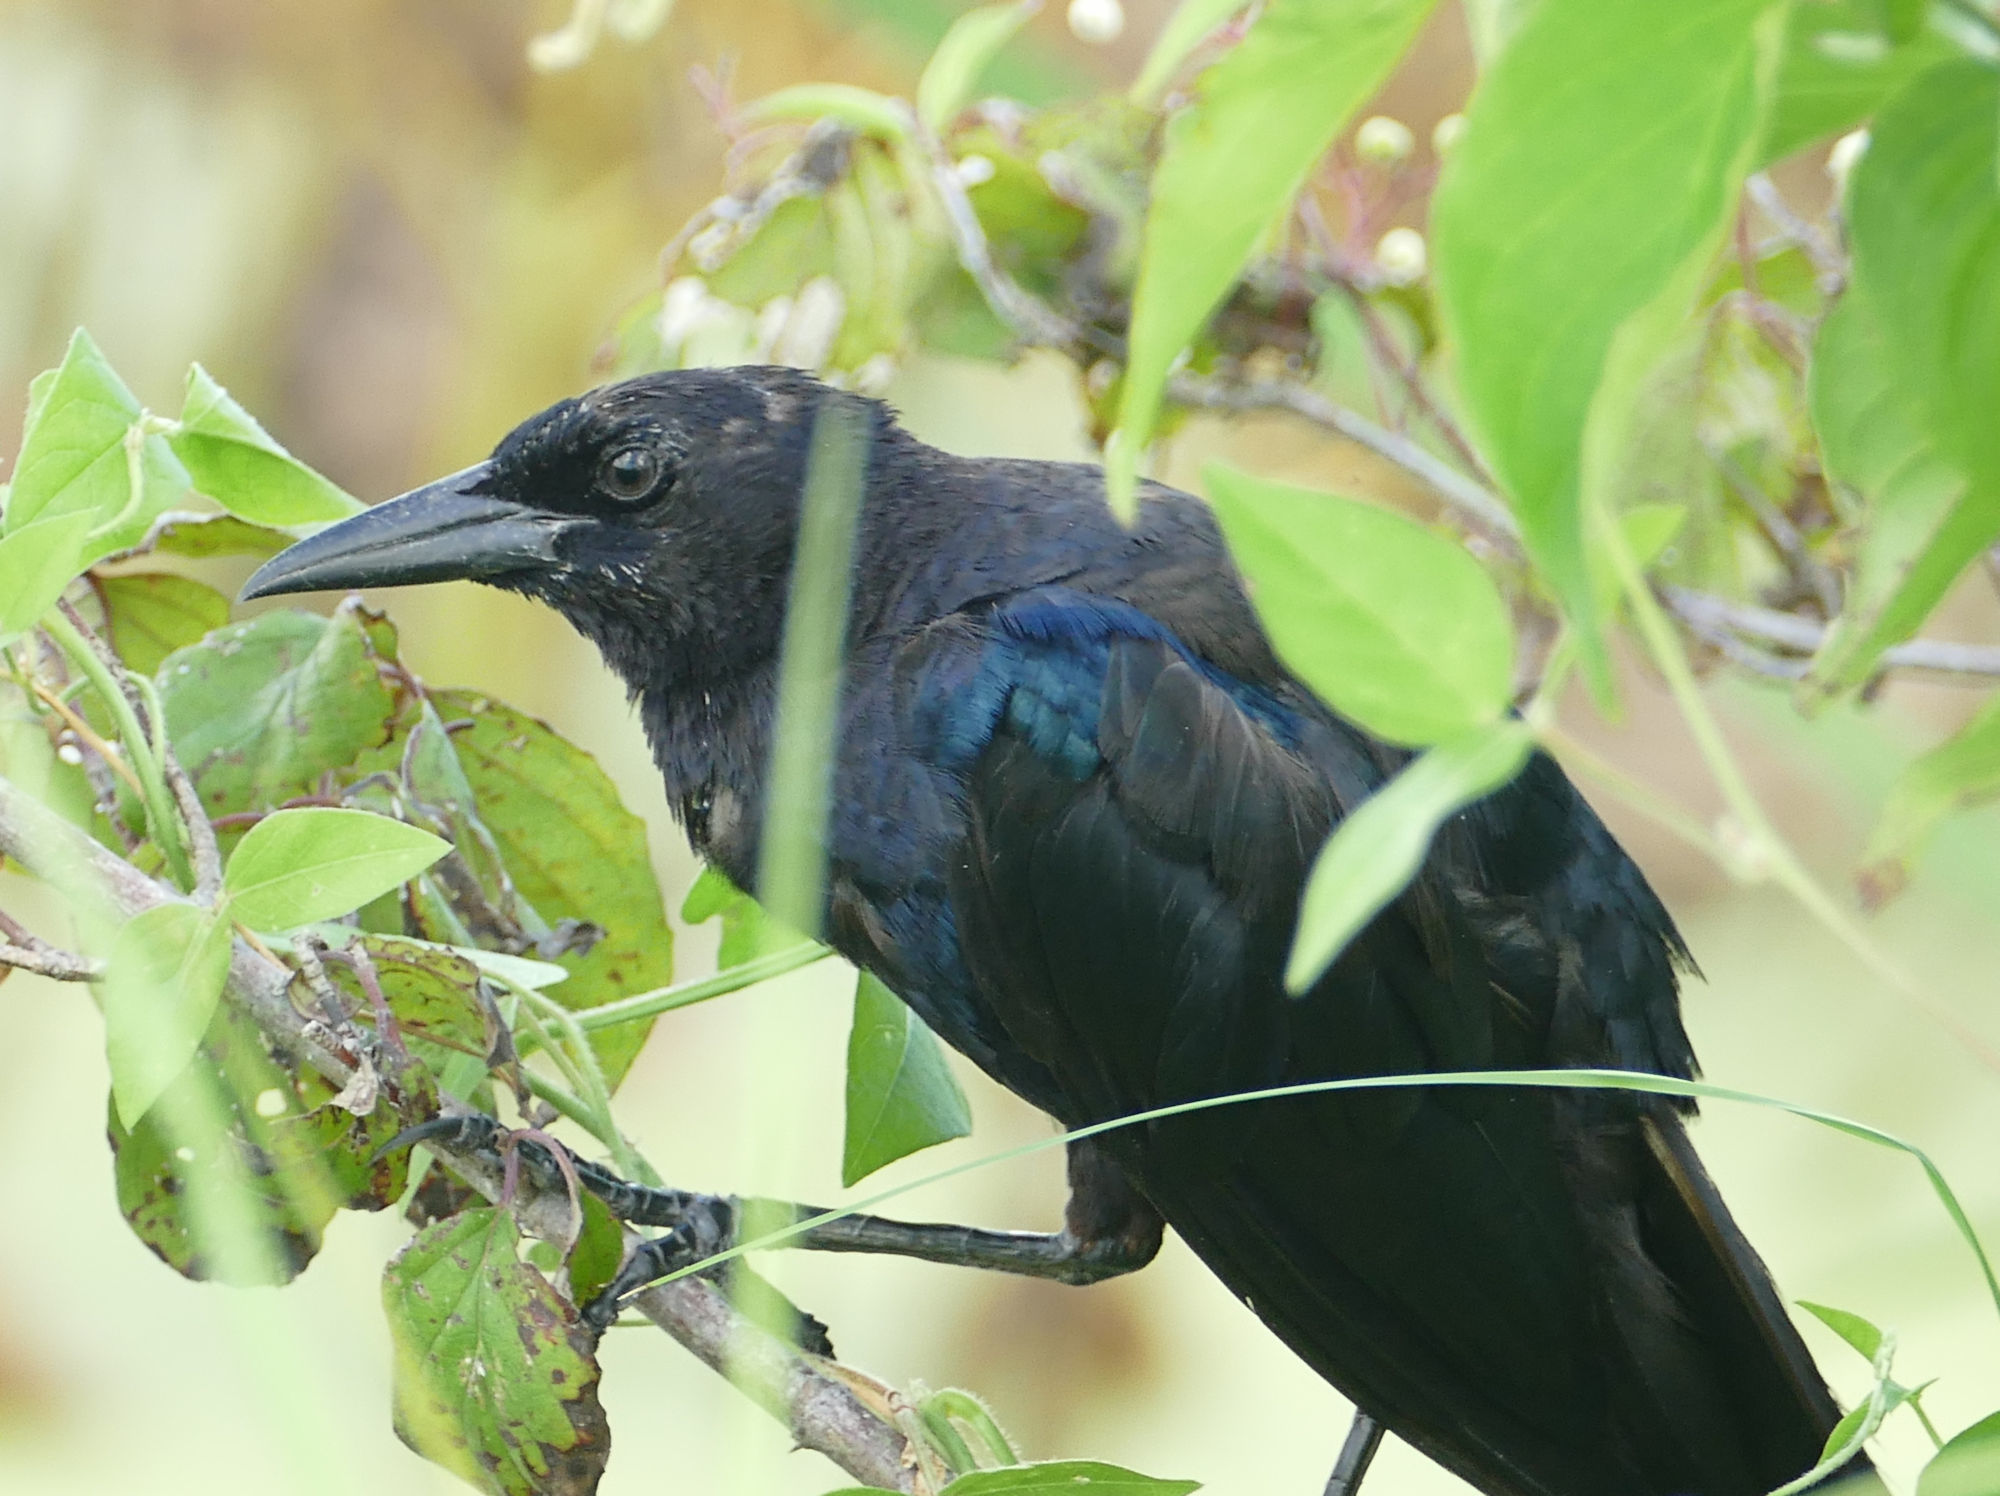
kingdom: Animalia
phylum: Chordata
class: Aves
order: Passeriformes
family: Icteridae
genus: Quiscalus
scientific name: Quiscalus major
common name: Boat-tailed grackle
